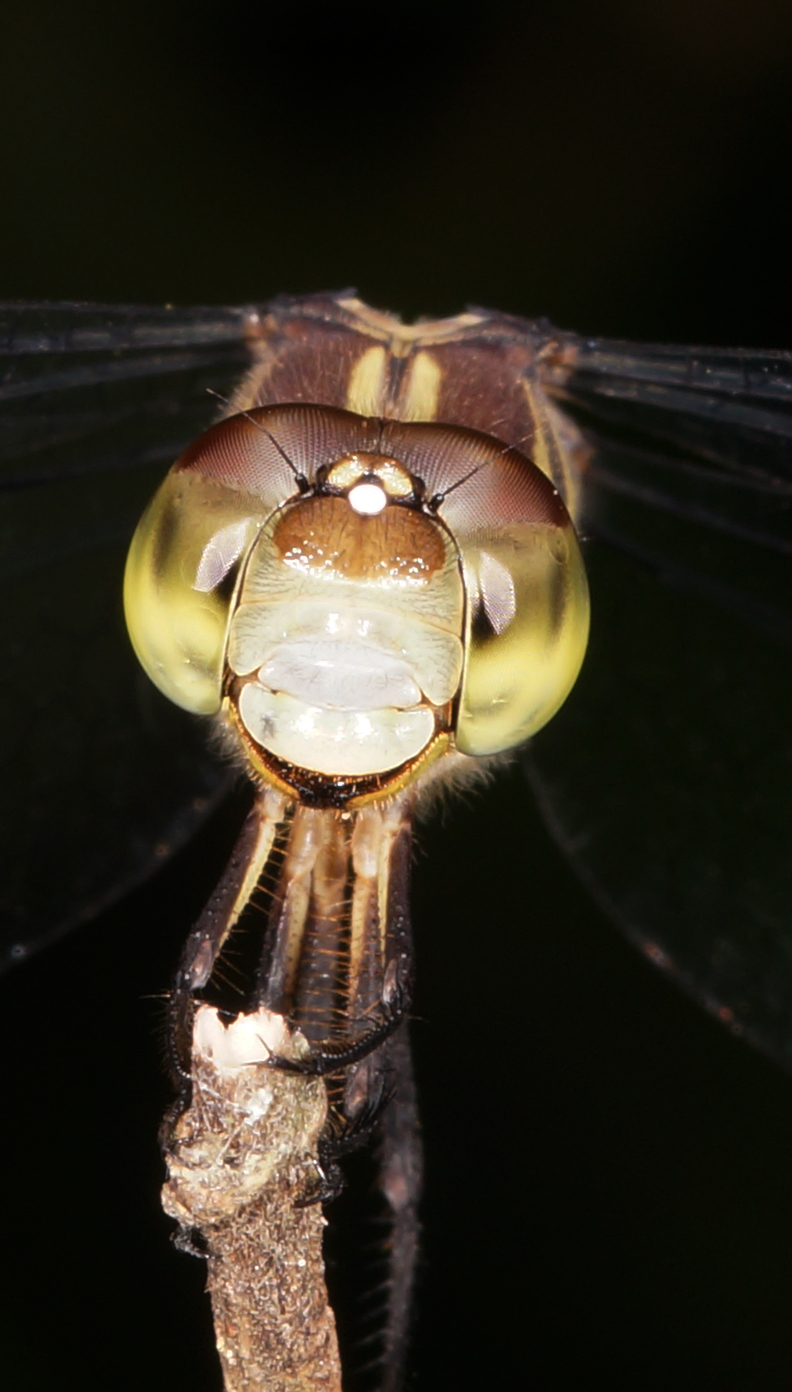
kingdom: Animalia
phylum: Arthropoda
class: Insecta
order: Odonata
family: Libellulidae
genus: Lathrecista
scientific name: Lathrecista asiatica
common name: Scarlet grenadier
